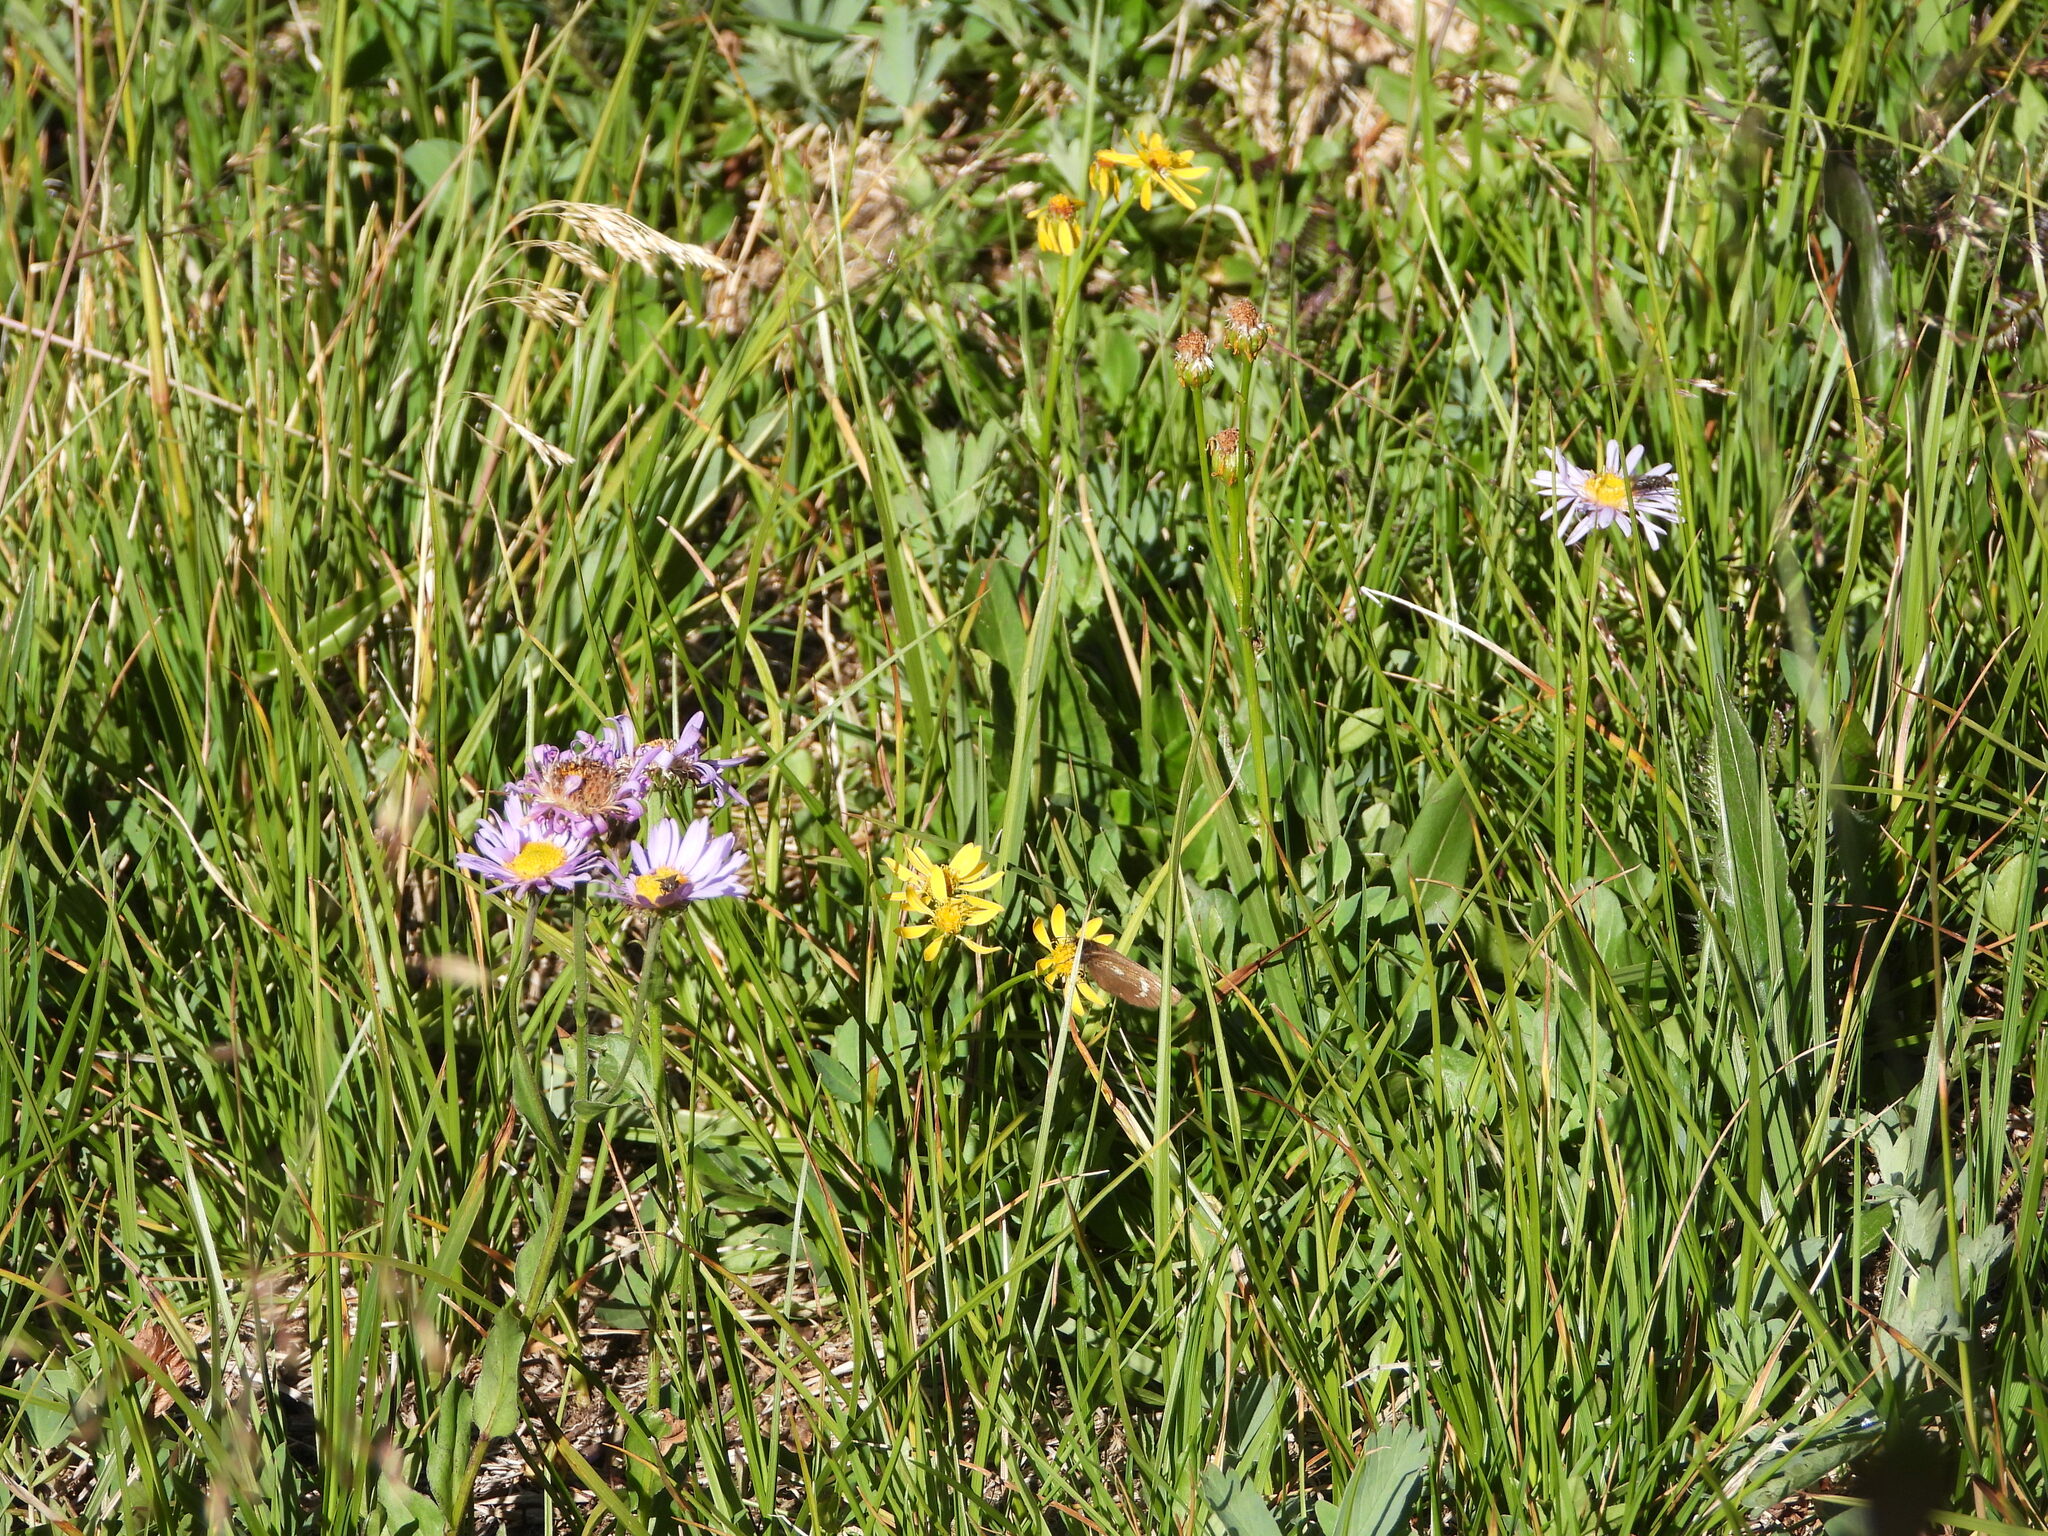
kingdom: Animalia
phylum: Arthropoda
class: Insecta
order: Lepidoptera
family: Nymphalidae
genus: Erebia
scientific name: Erebia pawloskii
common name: Theano alpine
